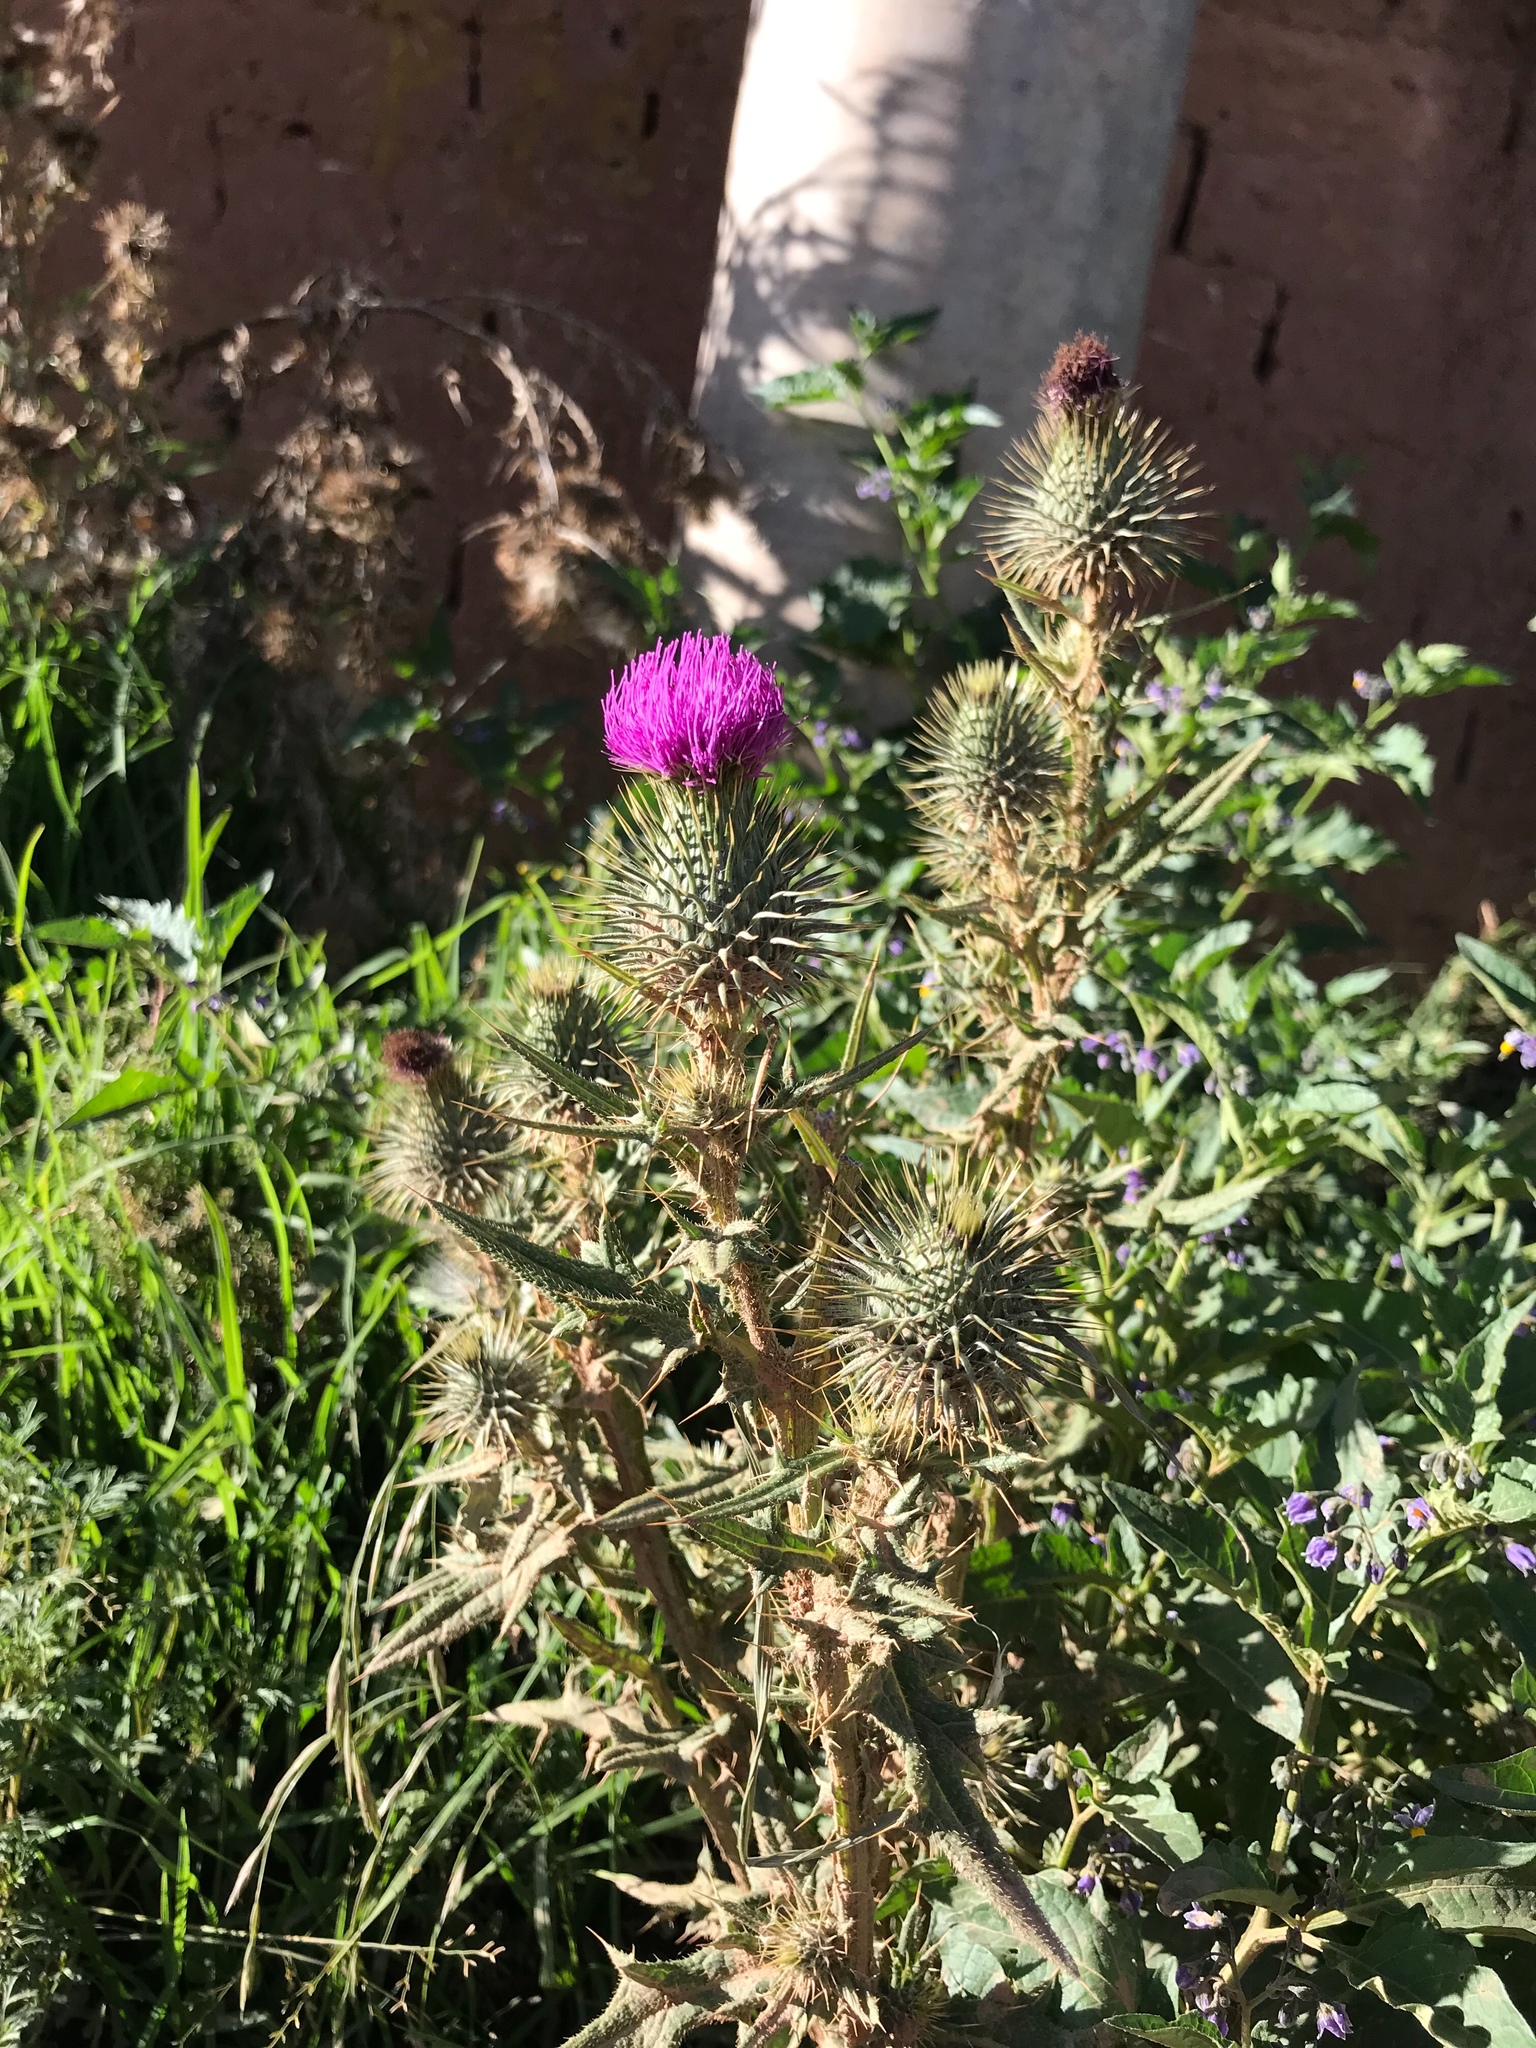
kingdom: Plantae
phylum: Tracheophyta
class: Magnoliopsida
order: Asterales
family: Asteraceae
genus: Cirsium
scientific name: Cirsium vulgare
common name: Bull thistle
